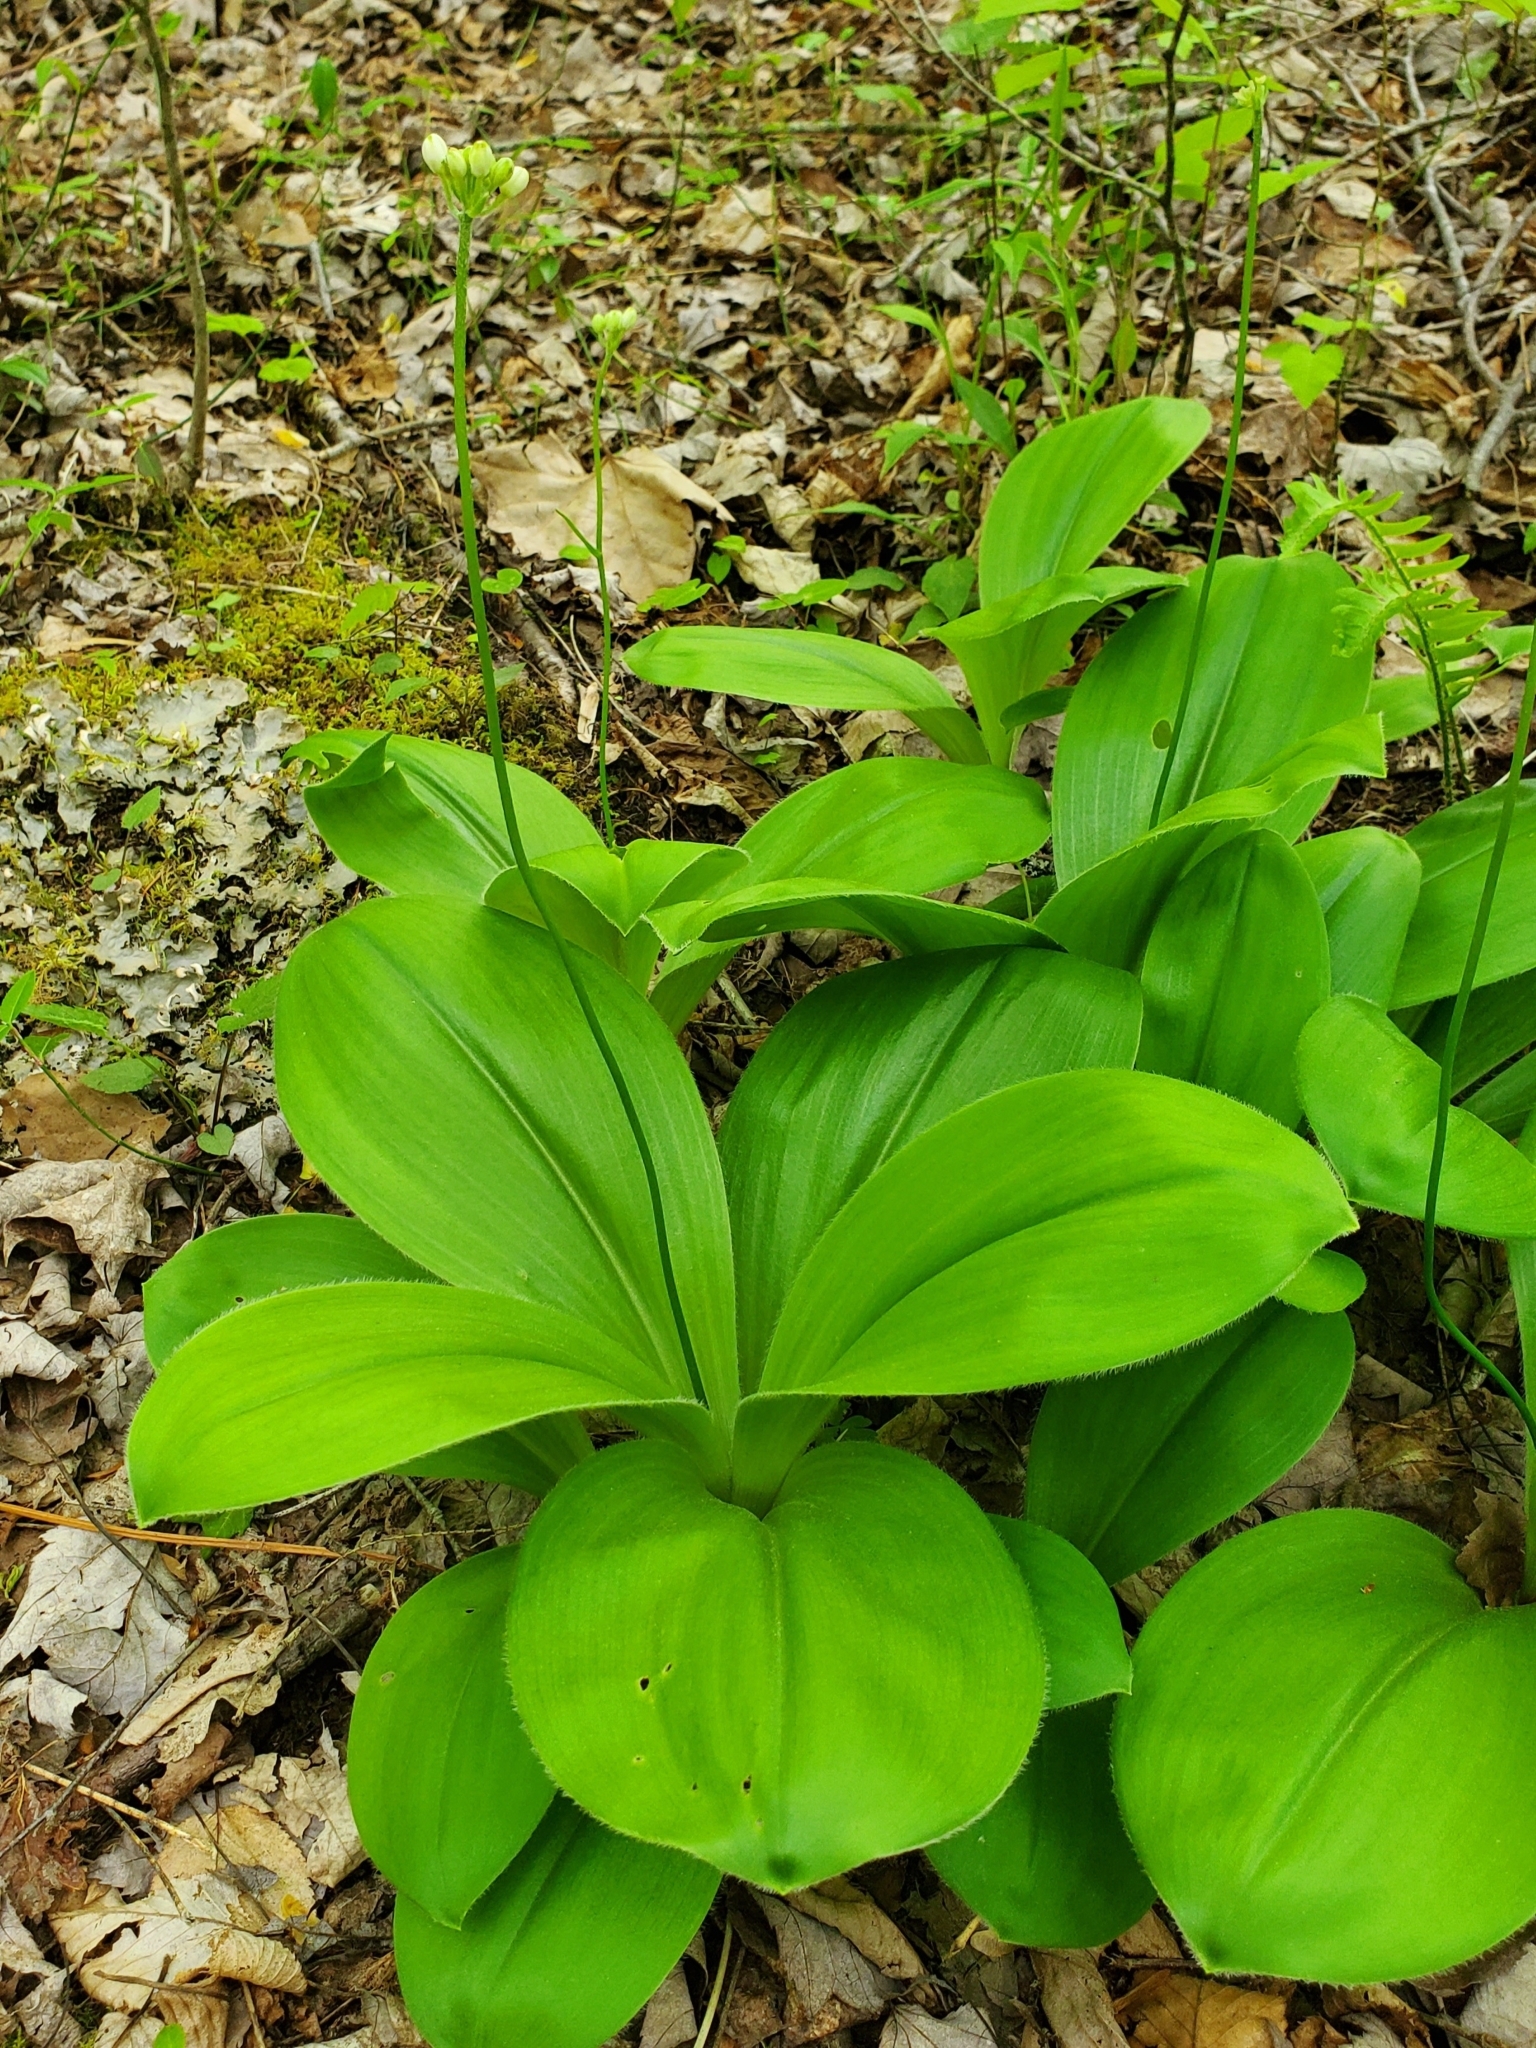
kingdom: Plantae
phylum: Tracheophyta
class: Liliopsida
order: Liliales
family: Liliaceae
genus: Clintonia
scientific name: Clintonia umbellulata
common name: Speckle wood-lily
